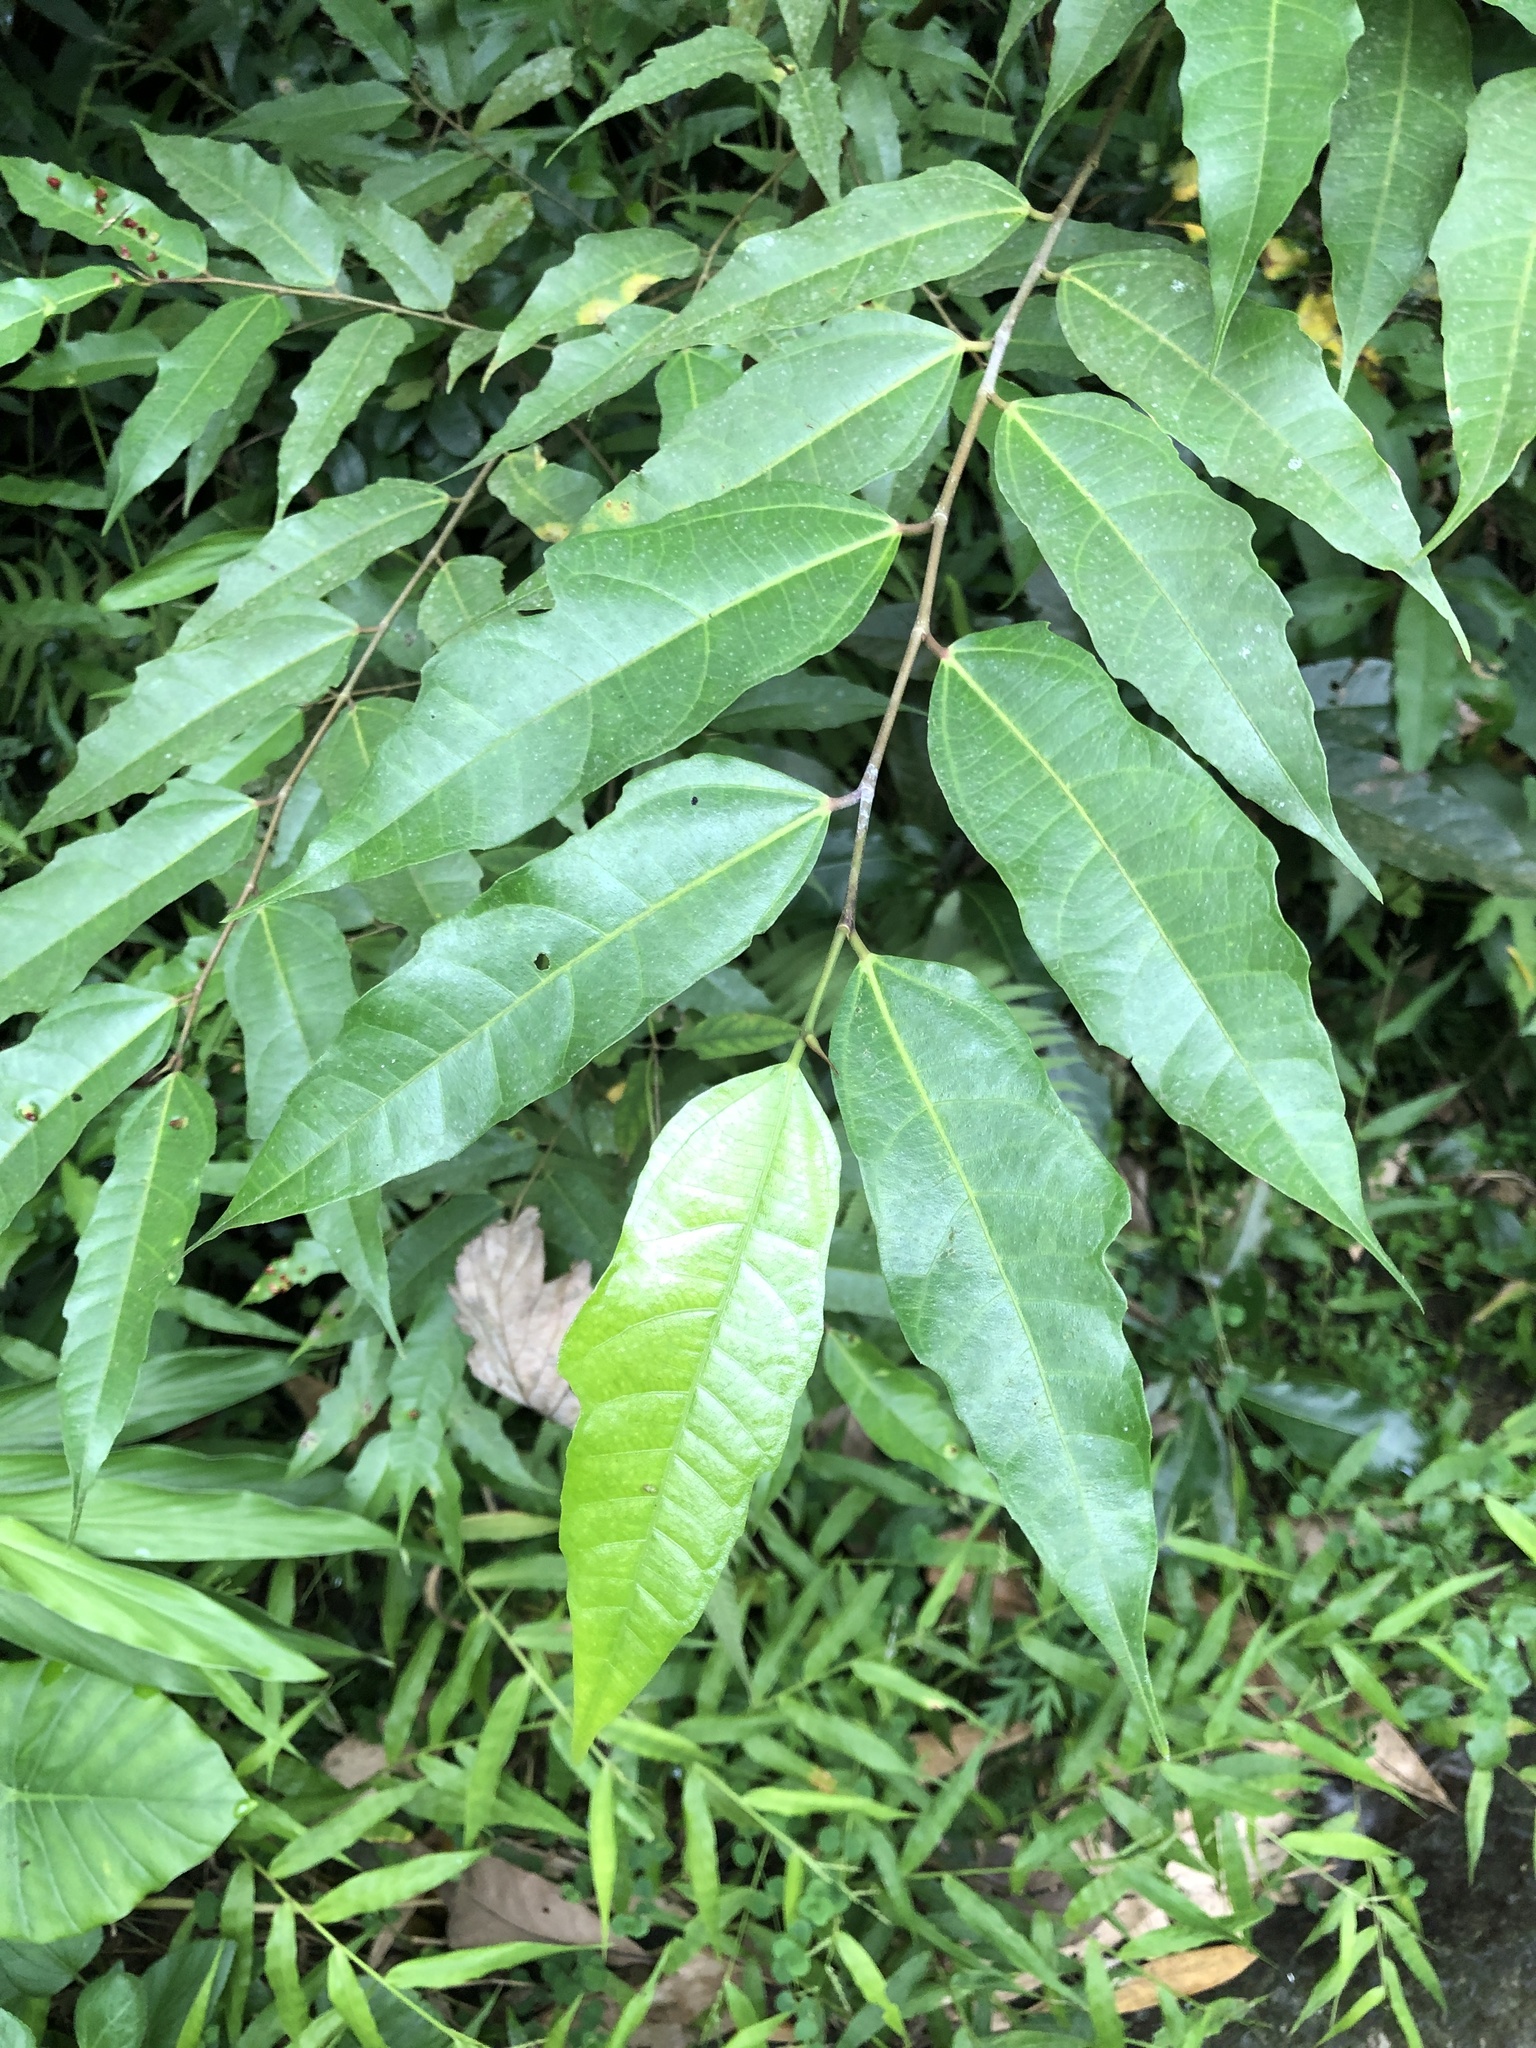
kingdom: Plantae
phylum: Tracheophyta
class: Magnoliopsida
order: Rosales
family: Moraceae
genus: Ficus
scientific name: Ficus ampelos
